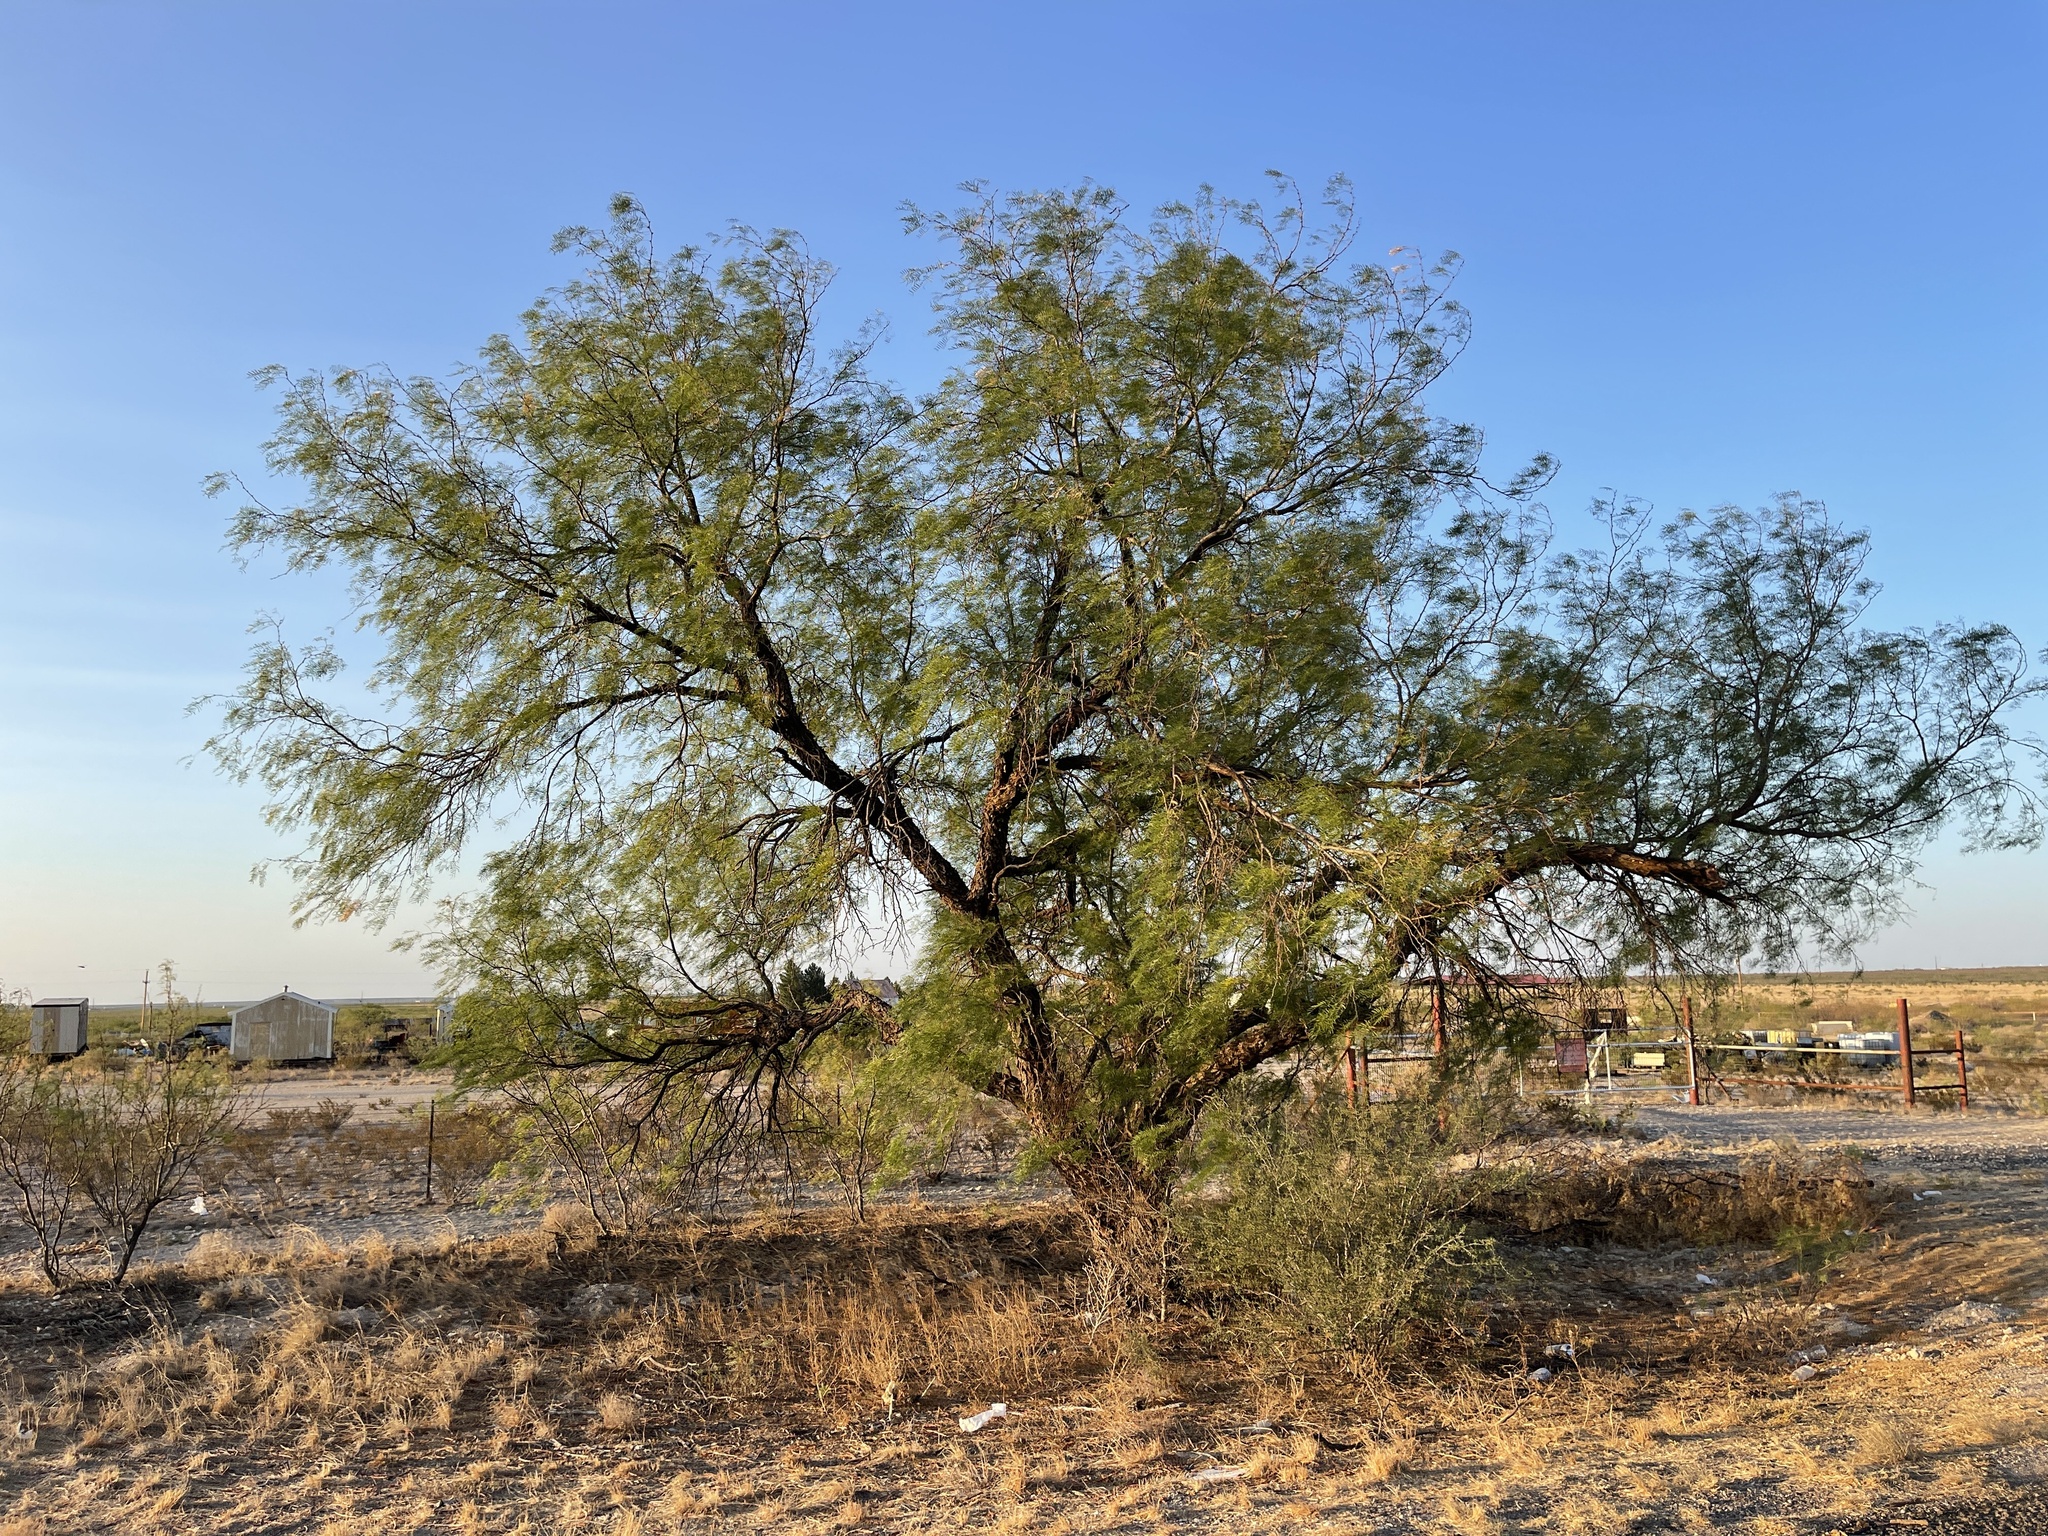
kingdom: Plantae
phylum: Tracheophyta
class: Magnoliopsida
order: Fabales
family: Fabaceae
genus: Prosopis
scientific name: Prosopis glandulosa
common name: Honey mesquite
